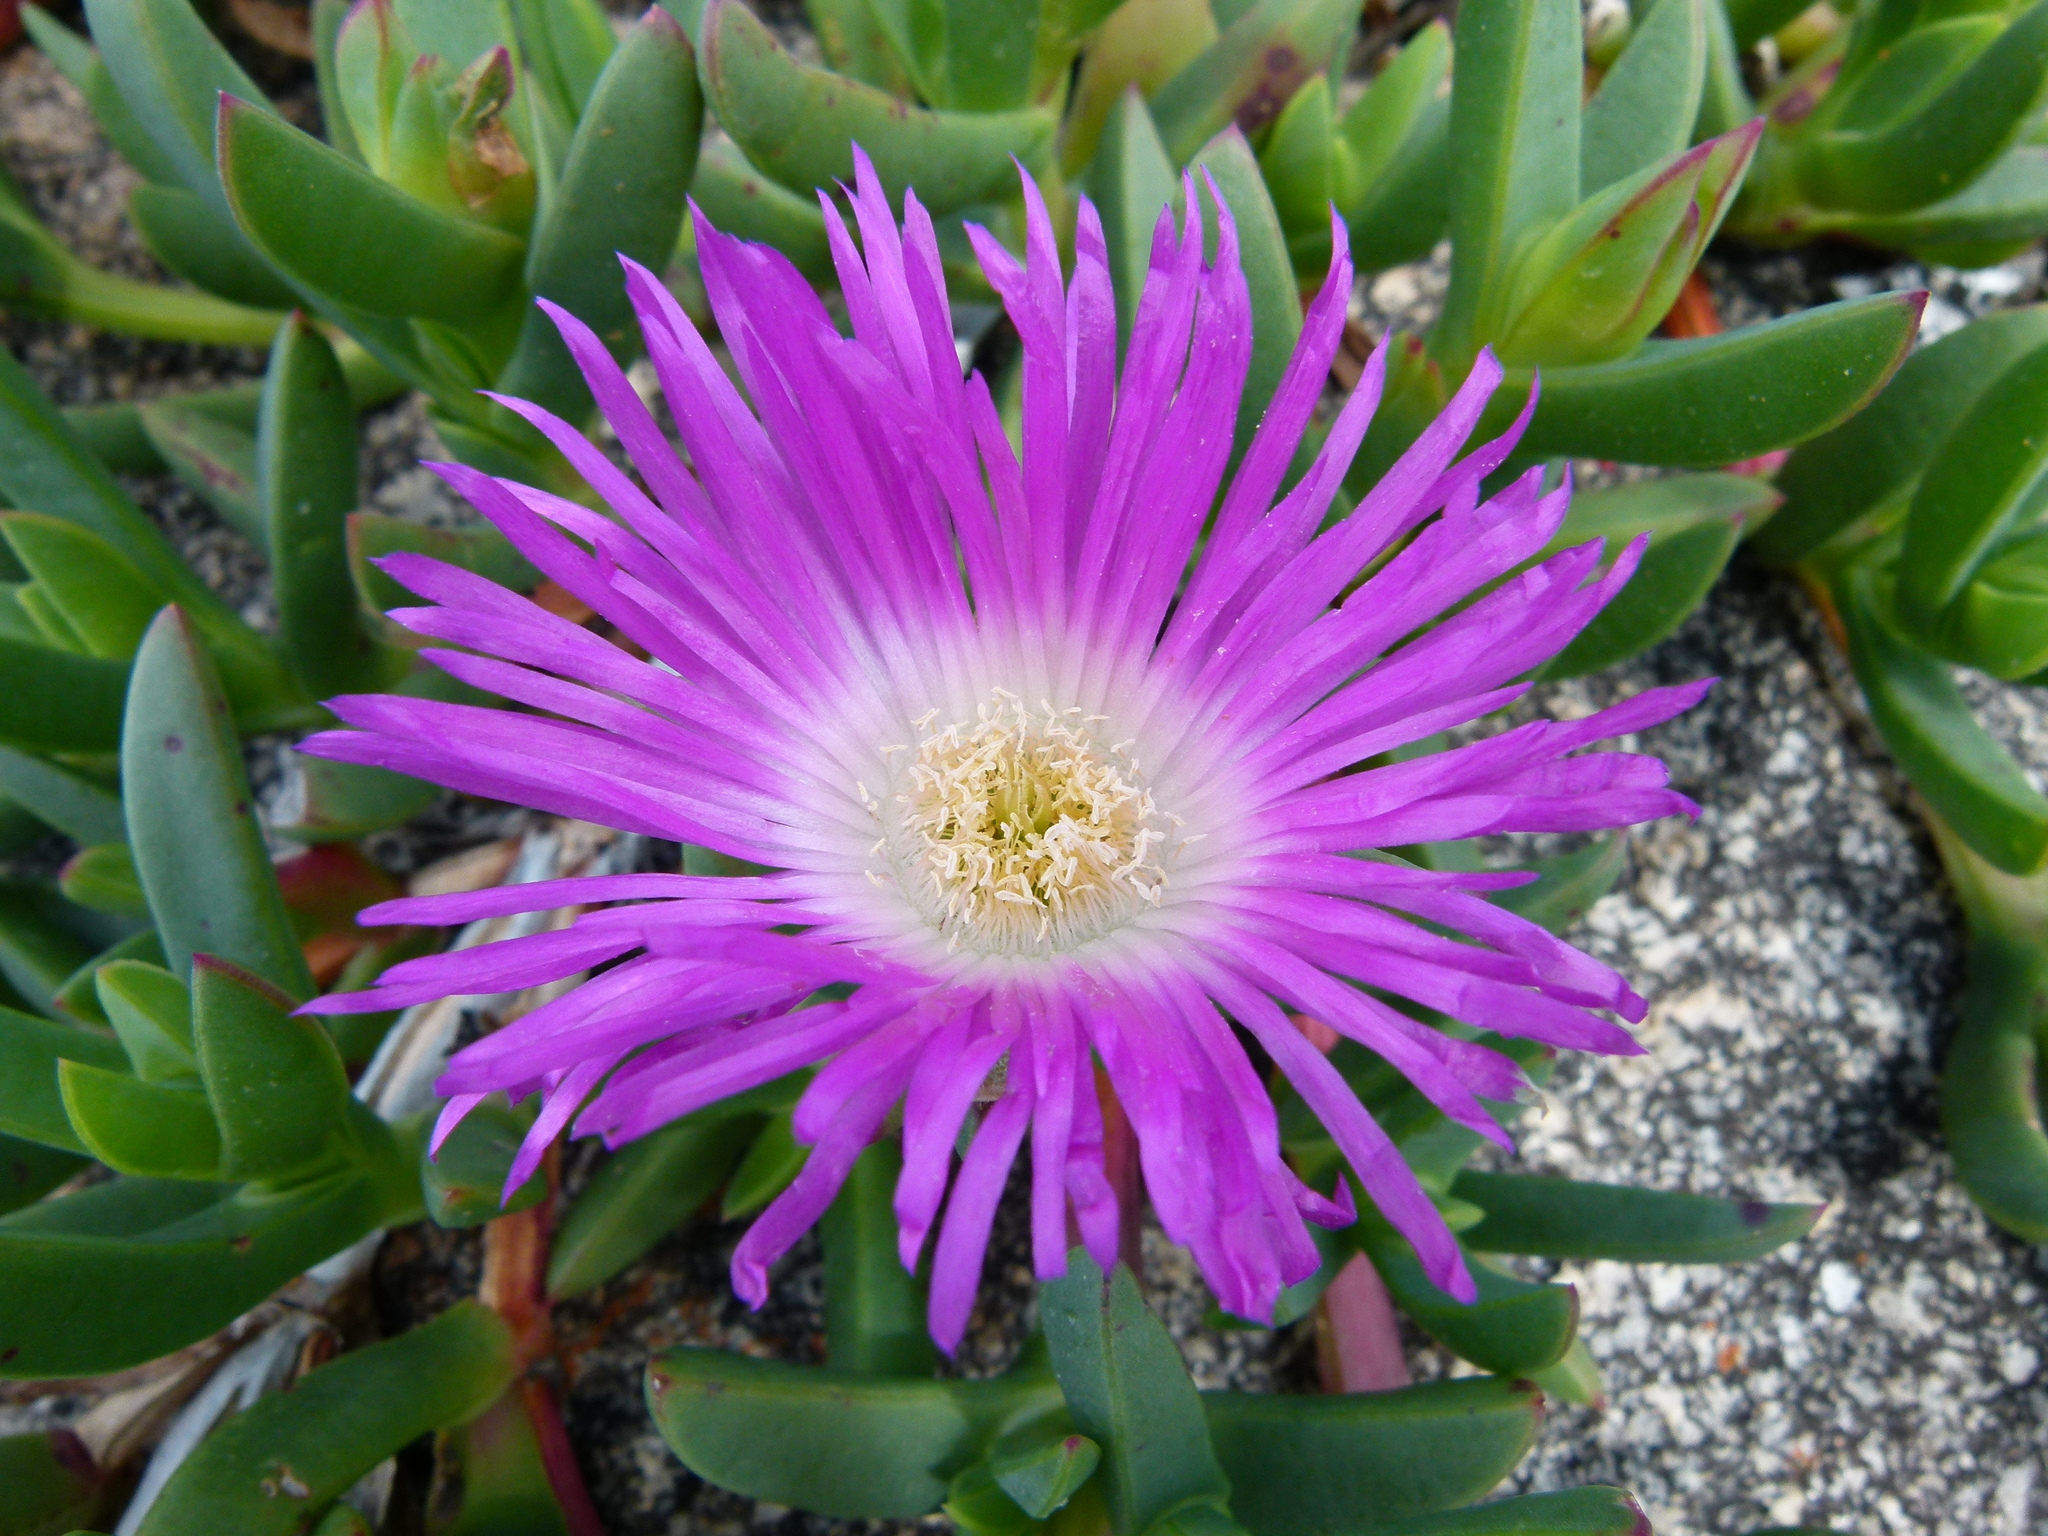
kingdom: Plantae
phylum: Tracheophyta
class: Magnoliopsida
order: Caryophyllales
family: Aizoaceae
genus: Carpobrotus
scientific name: Carpobrotus virescens
